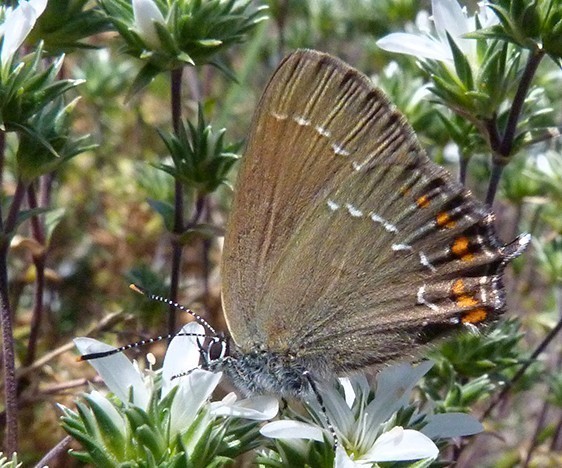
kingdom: Animalia
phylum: Arthropoda
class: Insecta
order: Lepidoptera
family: Lycaenidae
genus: Nordmannia
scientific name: Nordmannia ilicis
